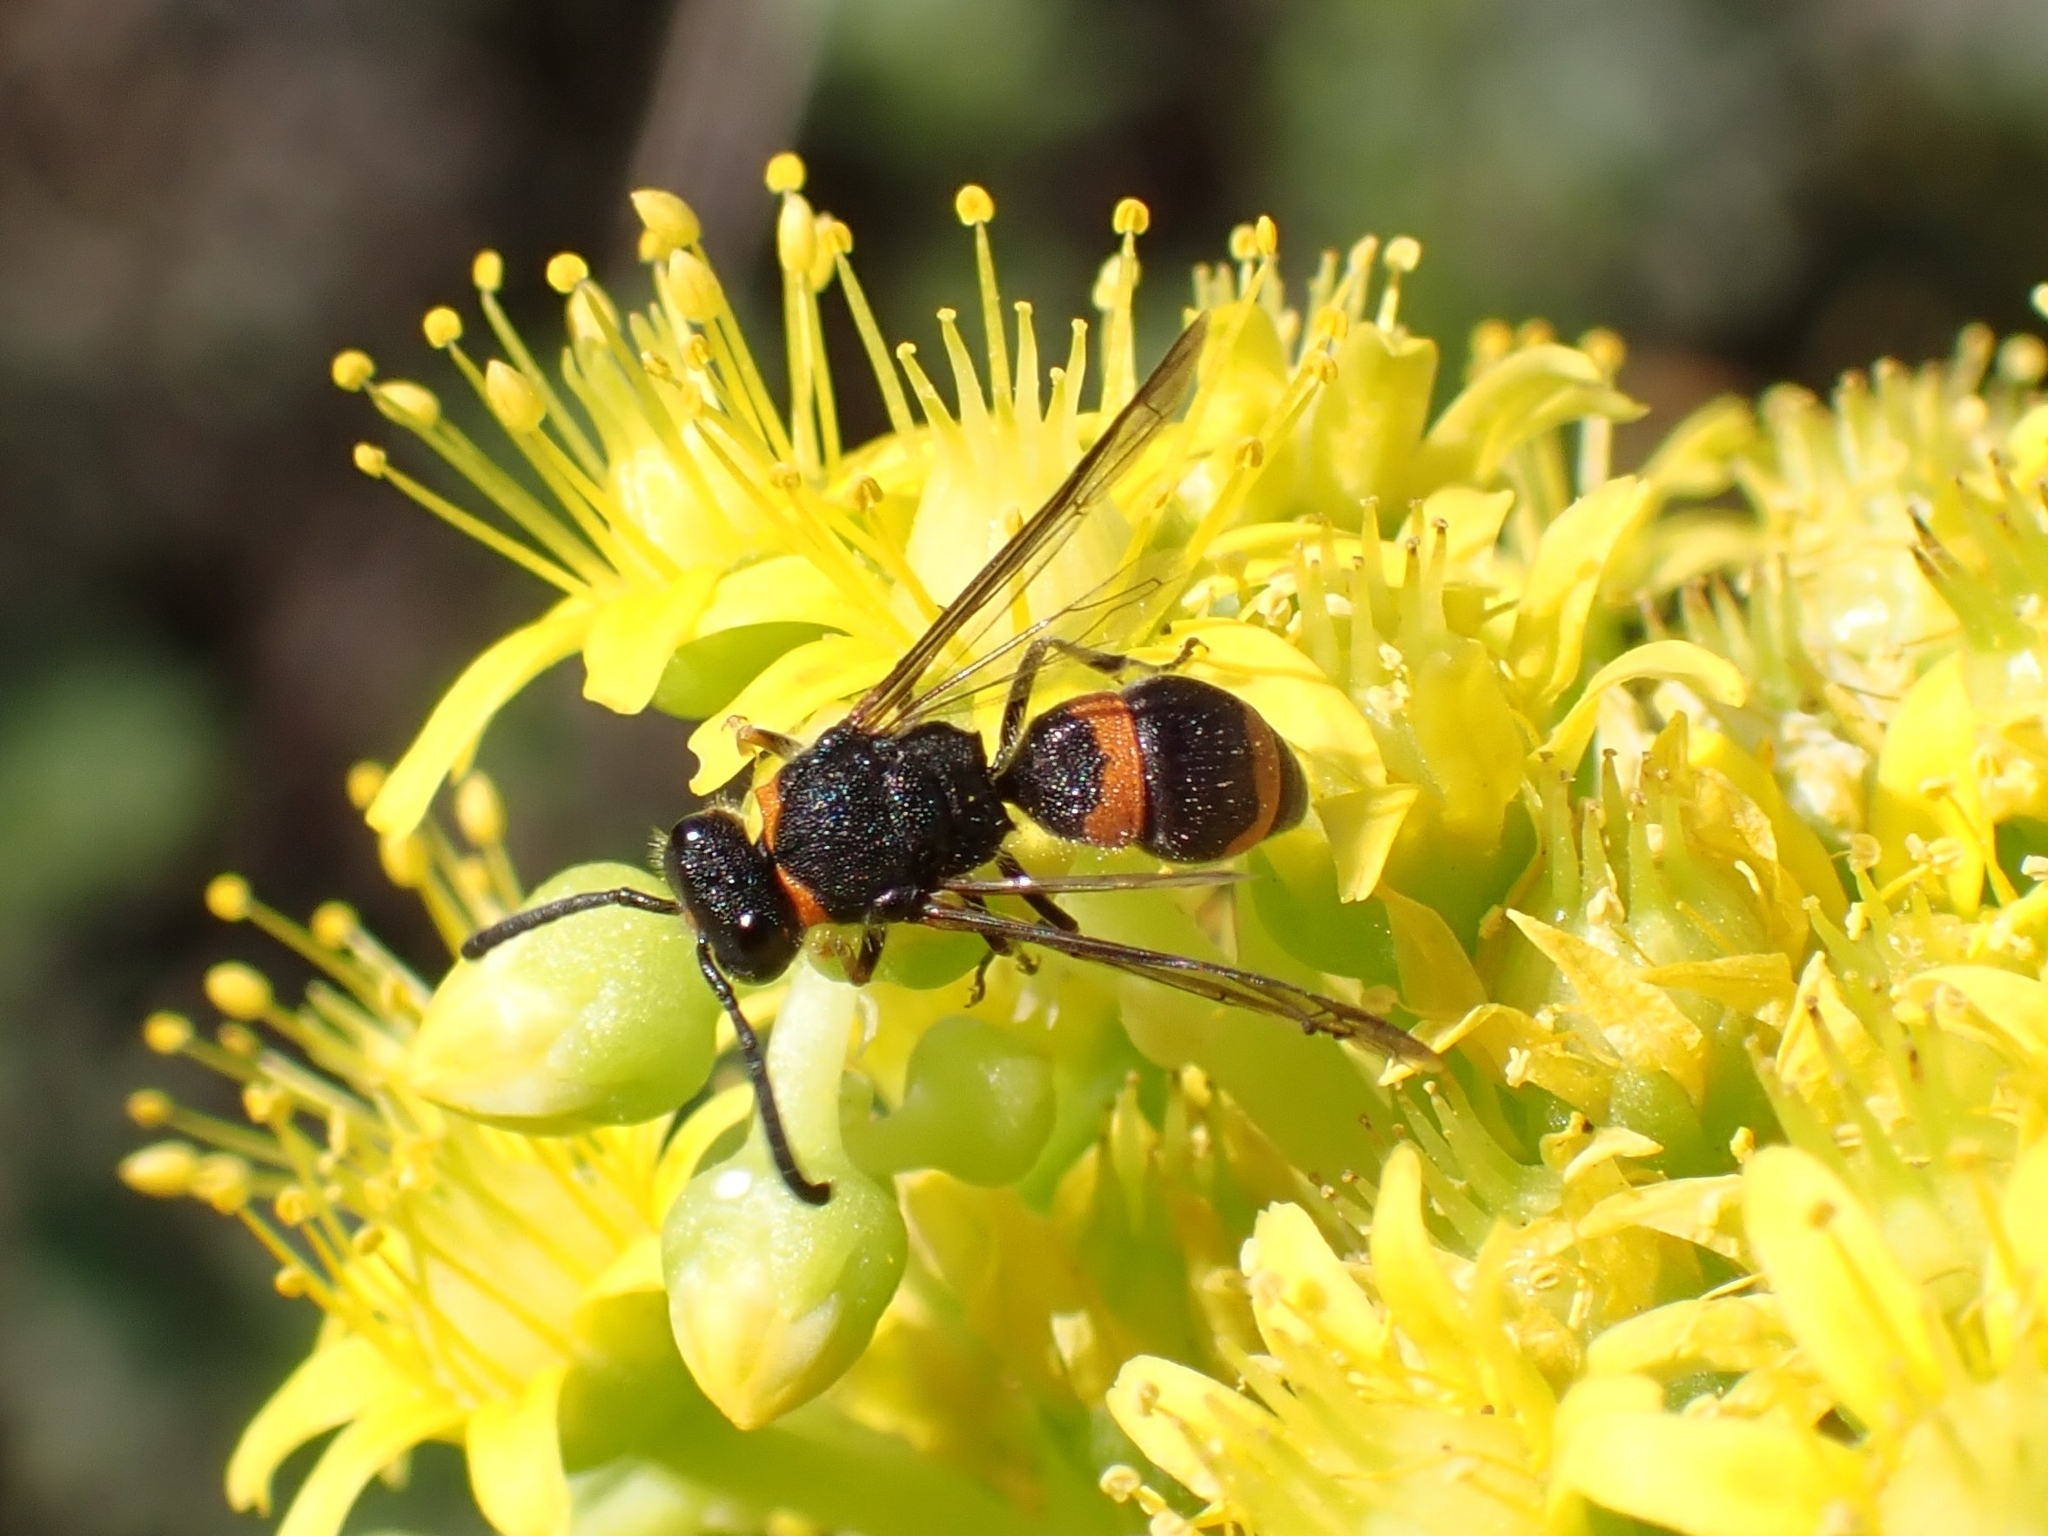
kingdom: Animalia
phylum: Arthropoda
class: Insecta
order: Hymenoptera
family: Vespidae
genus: Ancistrocerus
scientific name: Ancistrocerus haematodes
